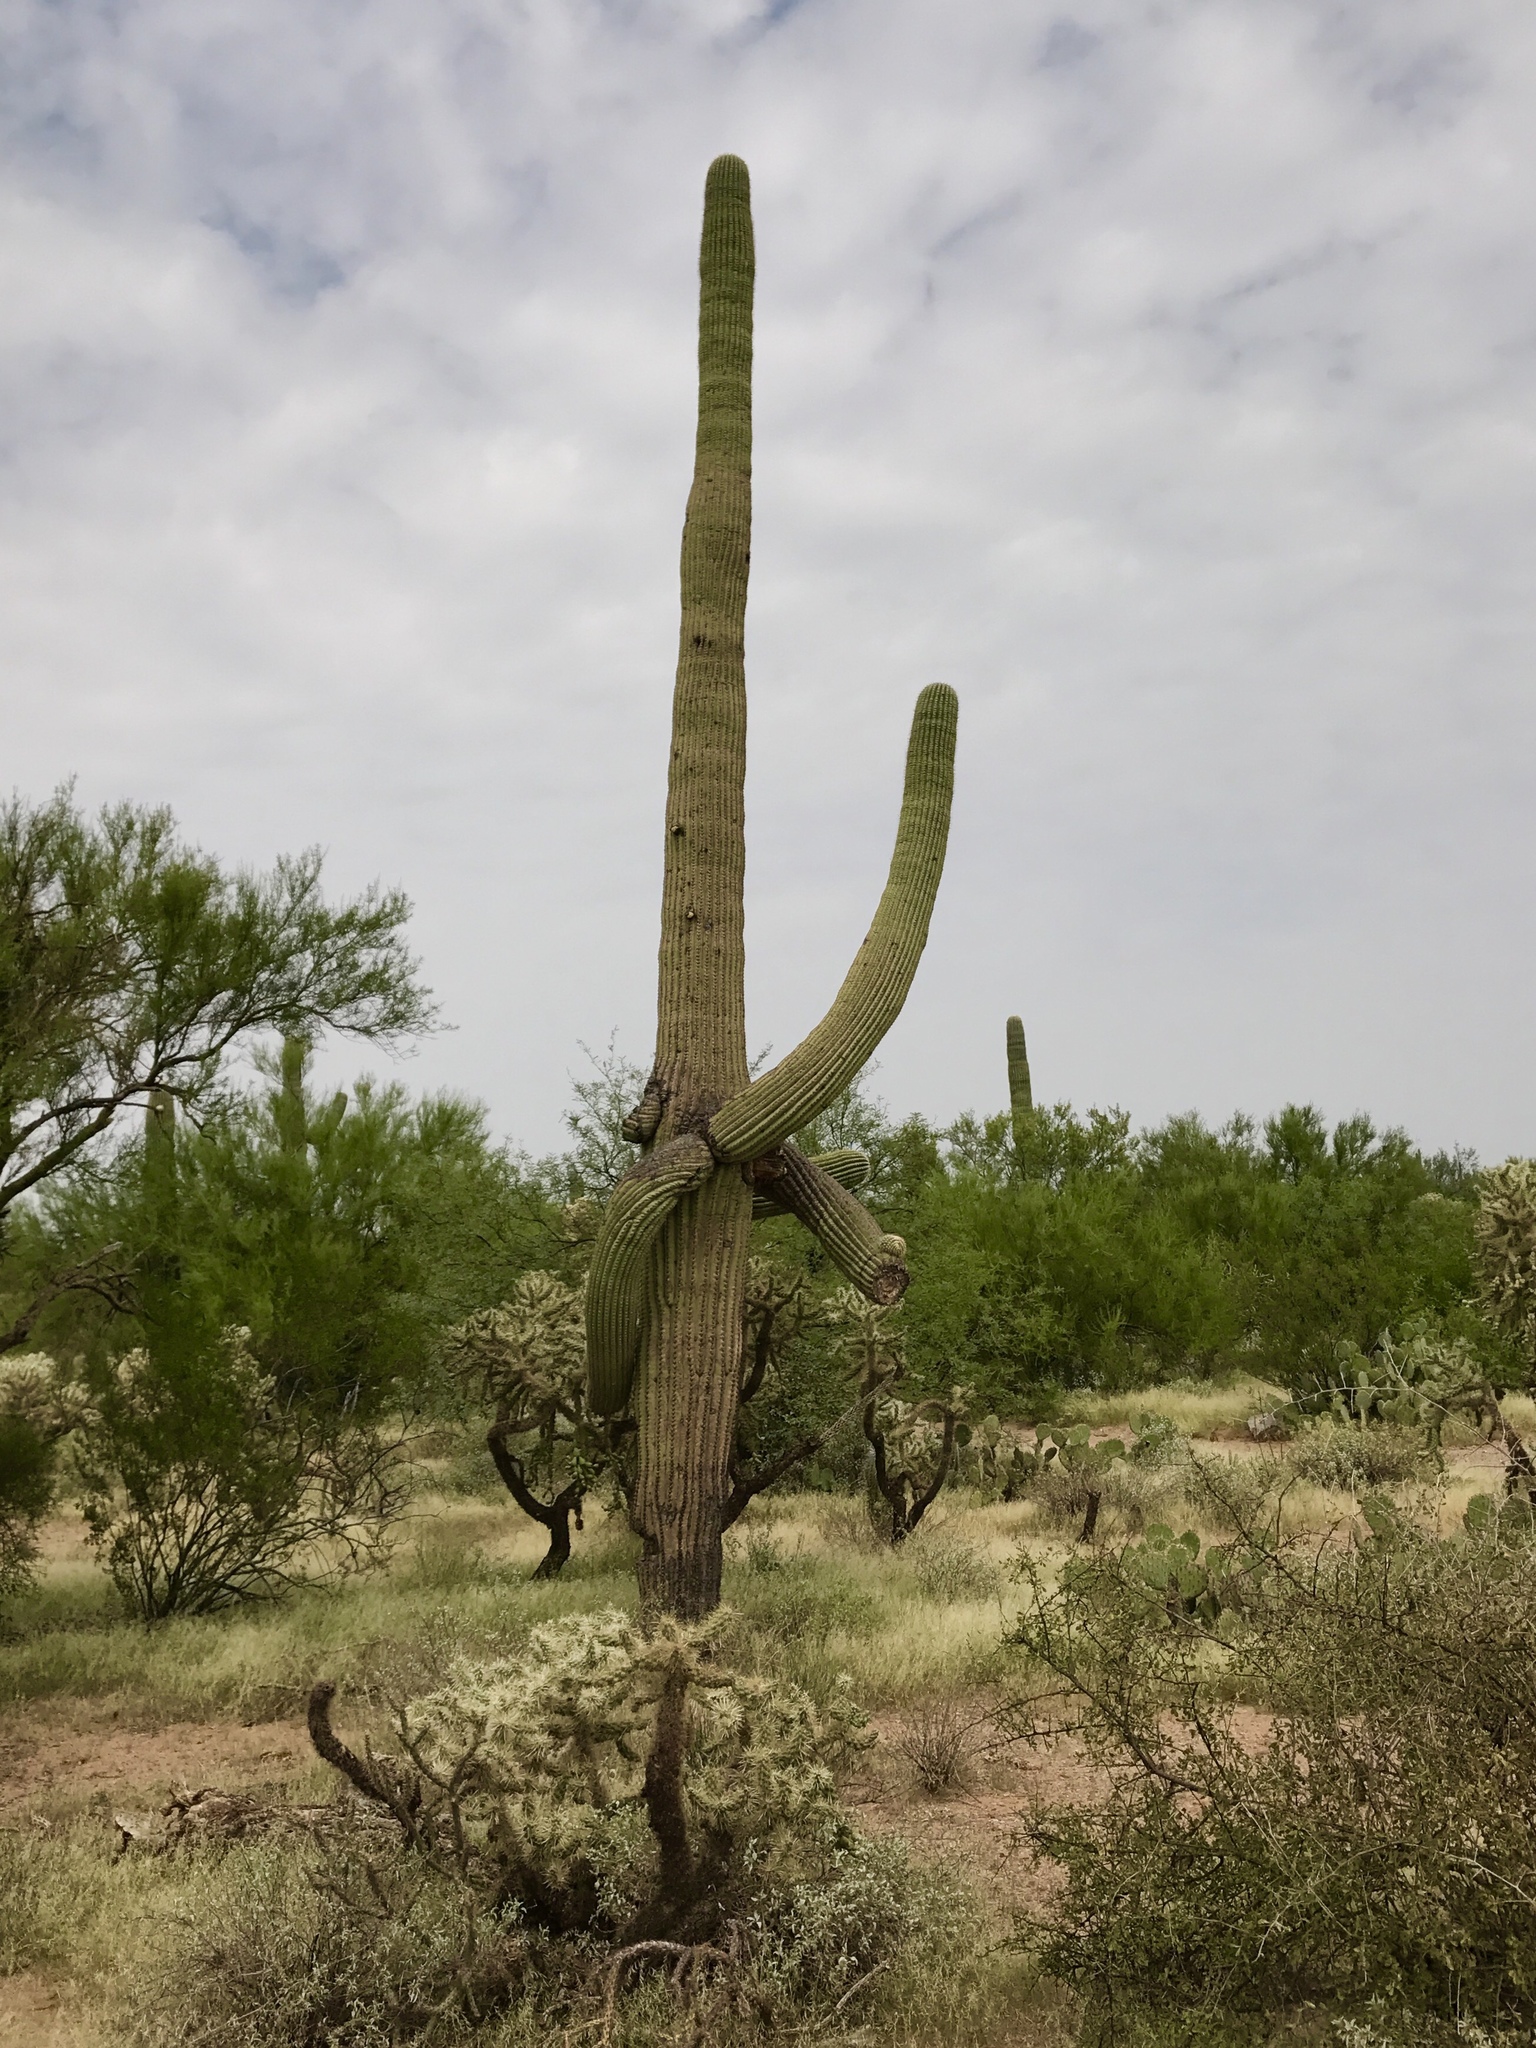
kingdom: Plantae
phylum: Tracheophyta
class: Magnoliopsida
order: Caryophyllales
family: Cactaceae
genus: Carnegiea
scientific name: Carnegiea gigantea
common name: Saguaro
